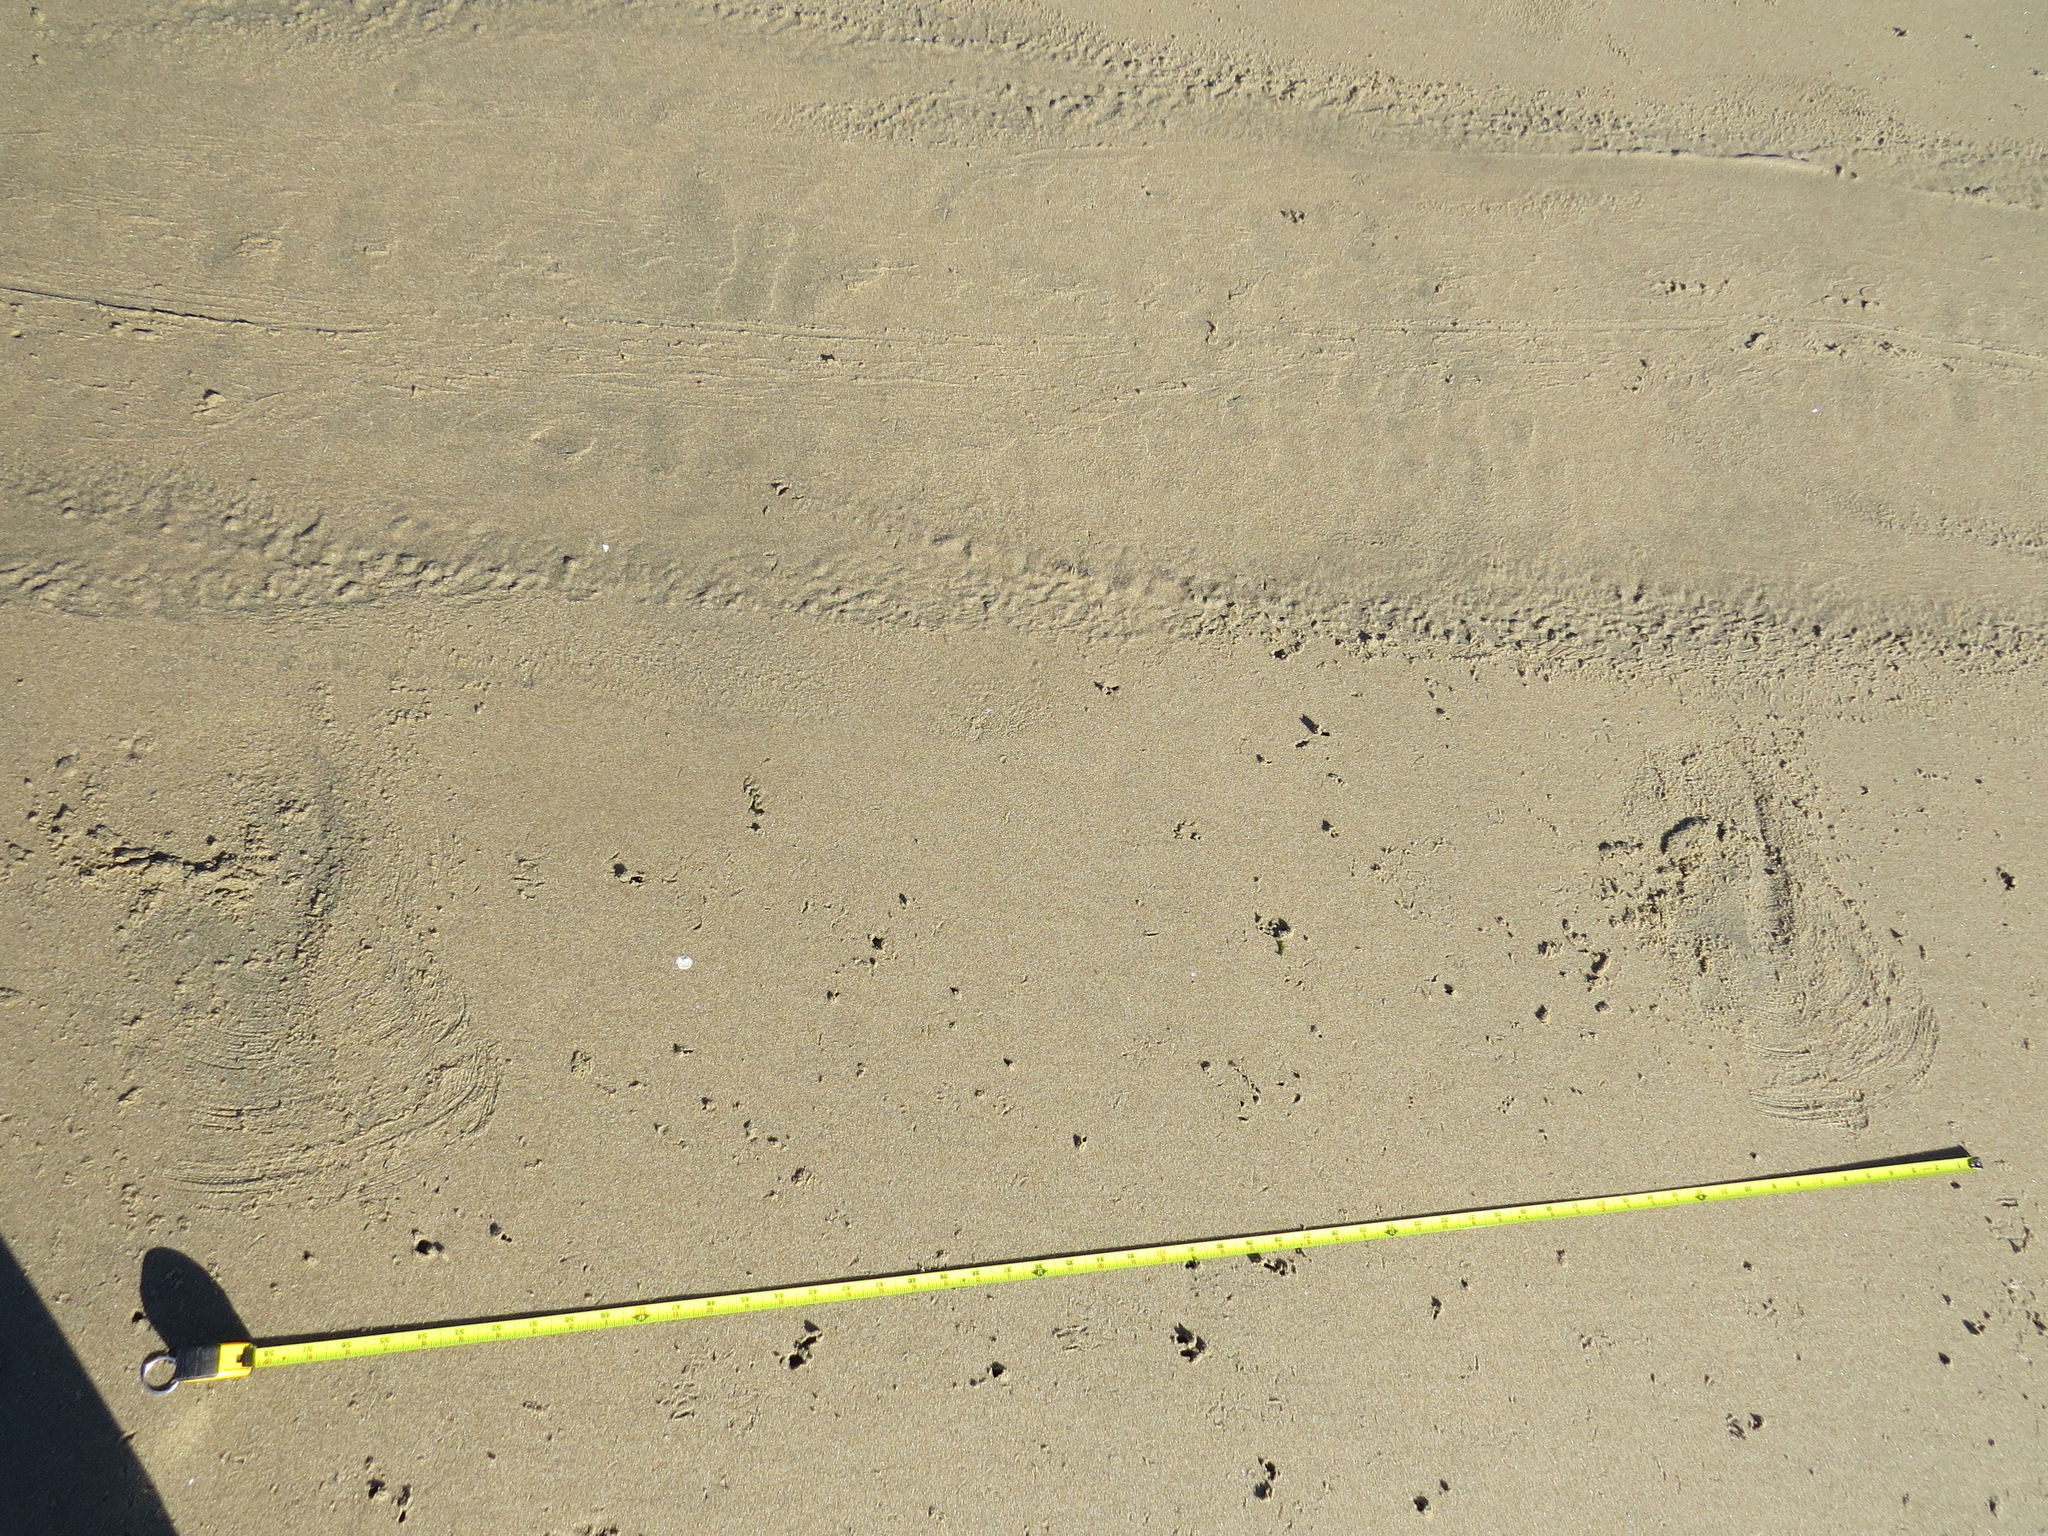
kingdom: Animalia
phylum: Chordata
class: Mammalia
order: Carnivora
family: Phocidae
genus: Mirounga
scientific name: Mirounga angustirostris
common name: Northern elephant seal
